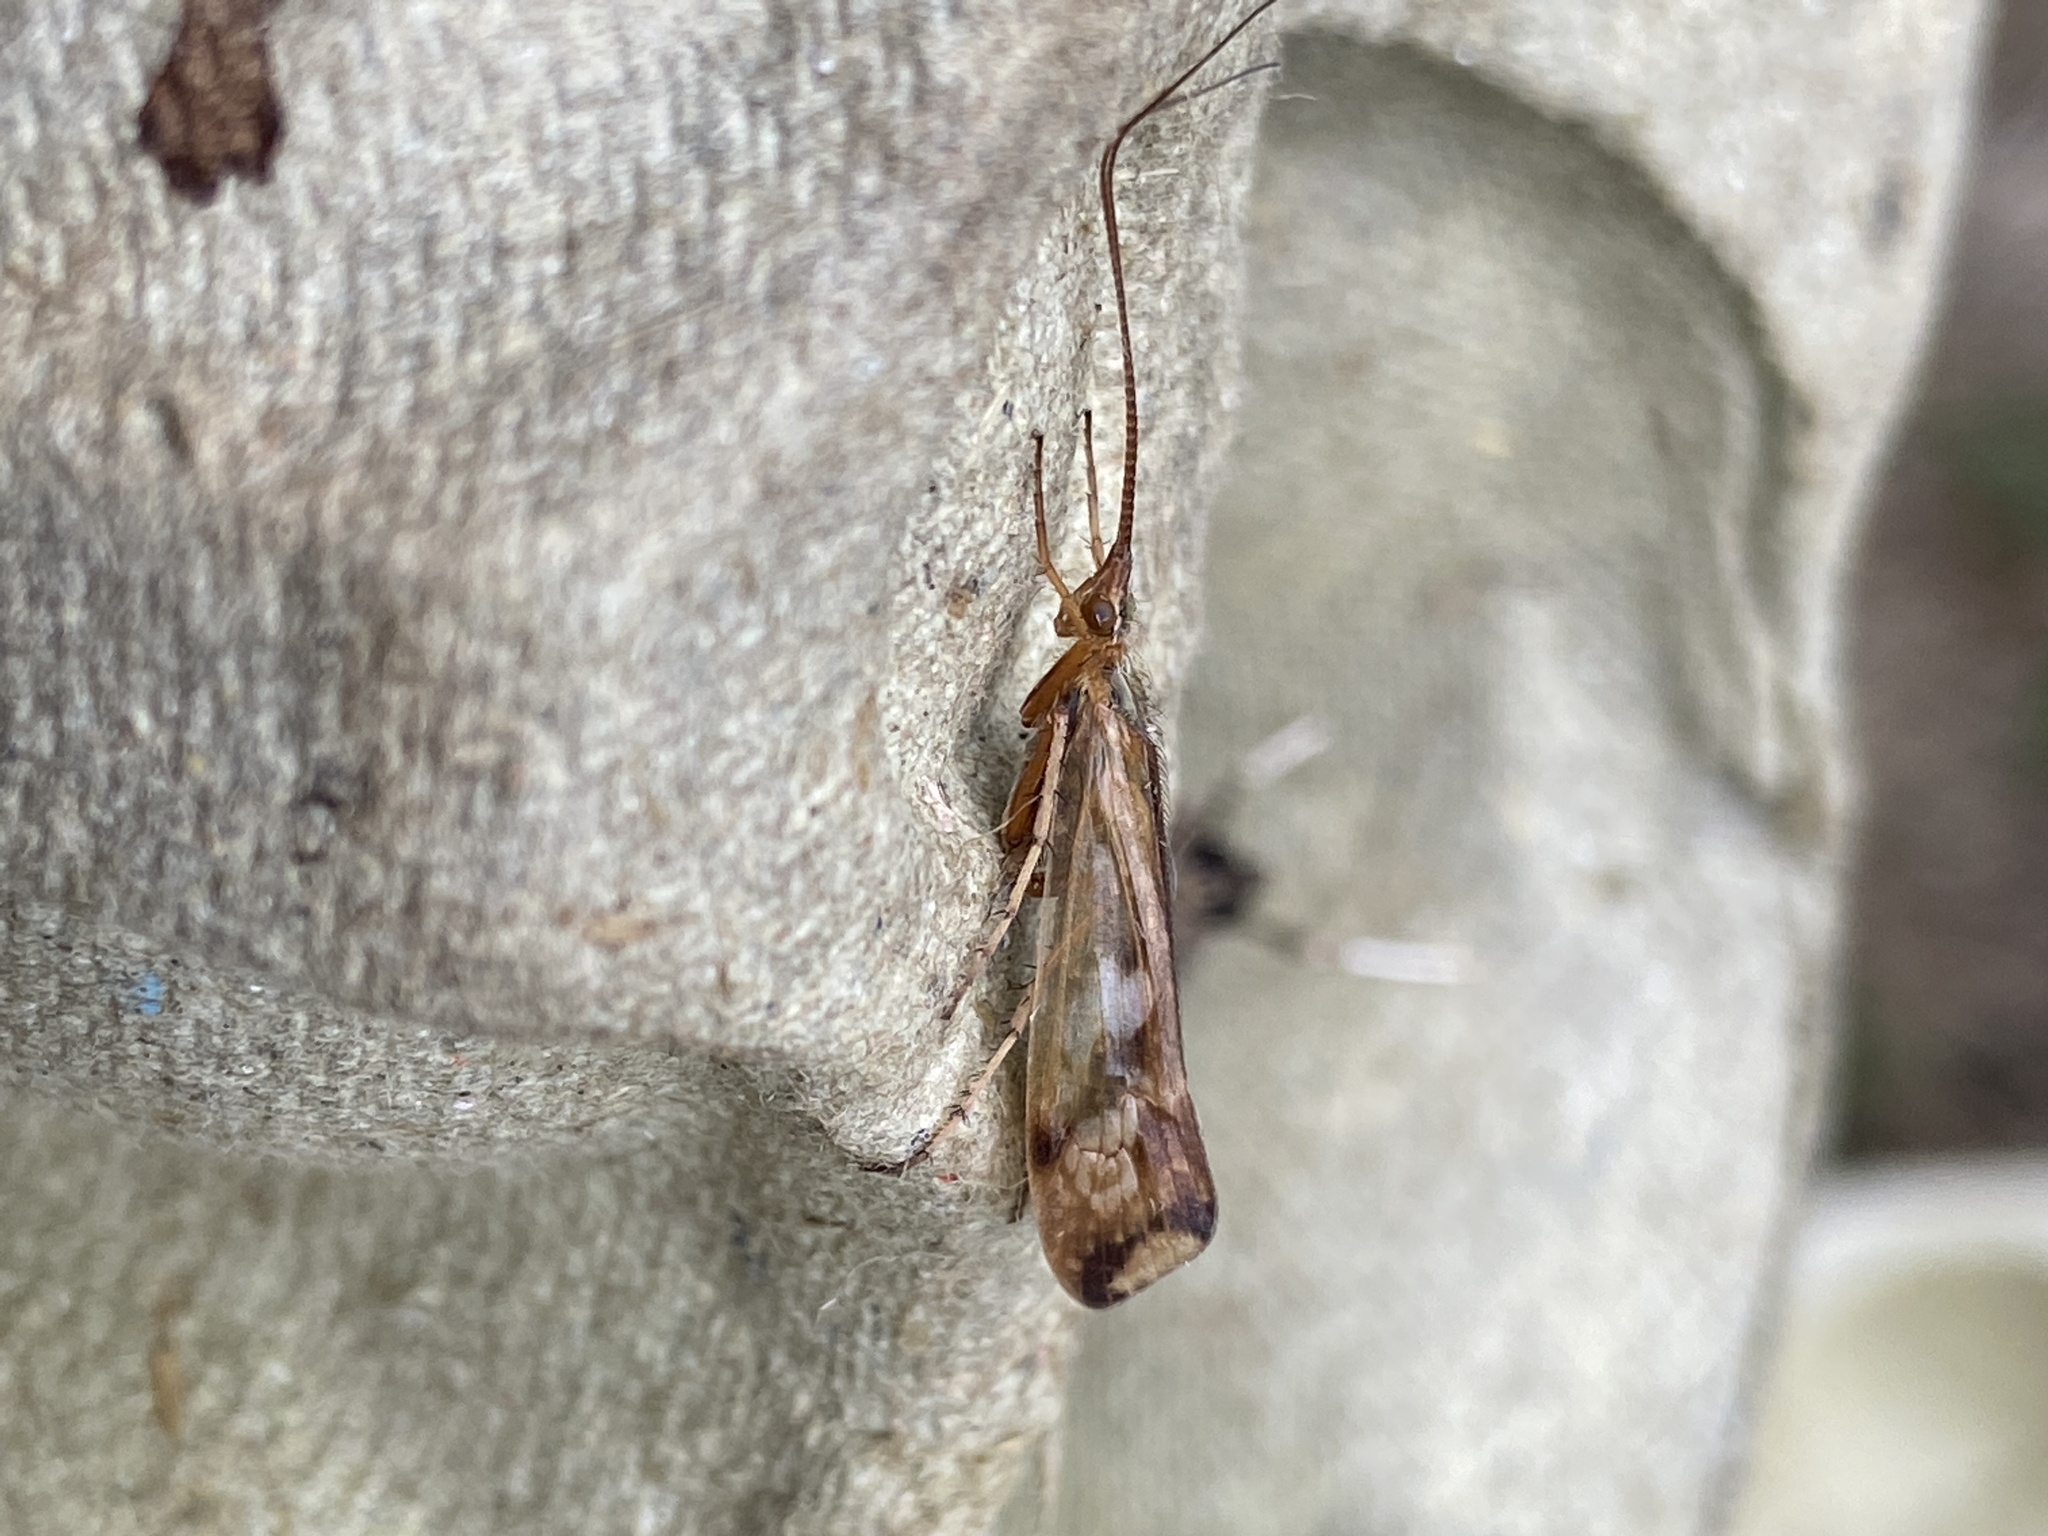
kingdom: Animalia
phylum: Arthropoda
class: Insecta
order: Trichoptera
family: Limnephilidae
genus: Limnephilus
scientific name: Limnephilus lunatus
